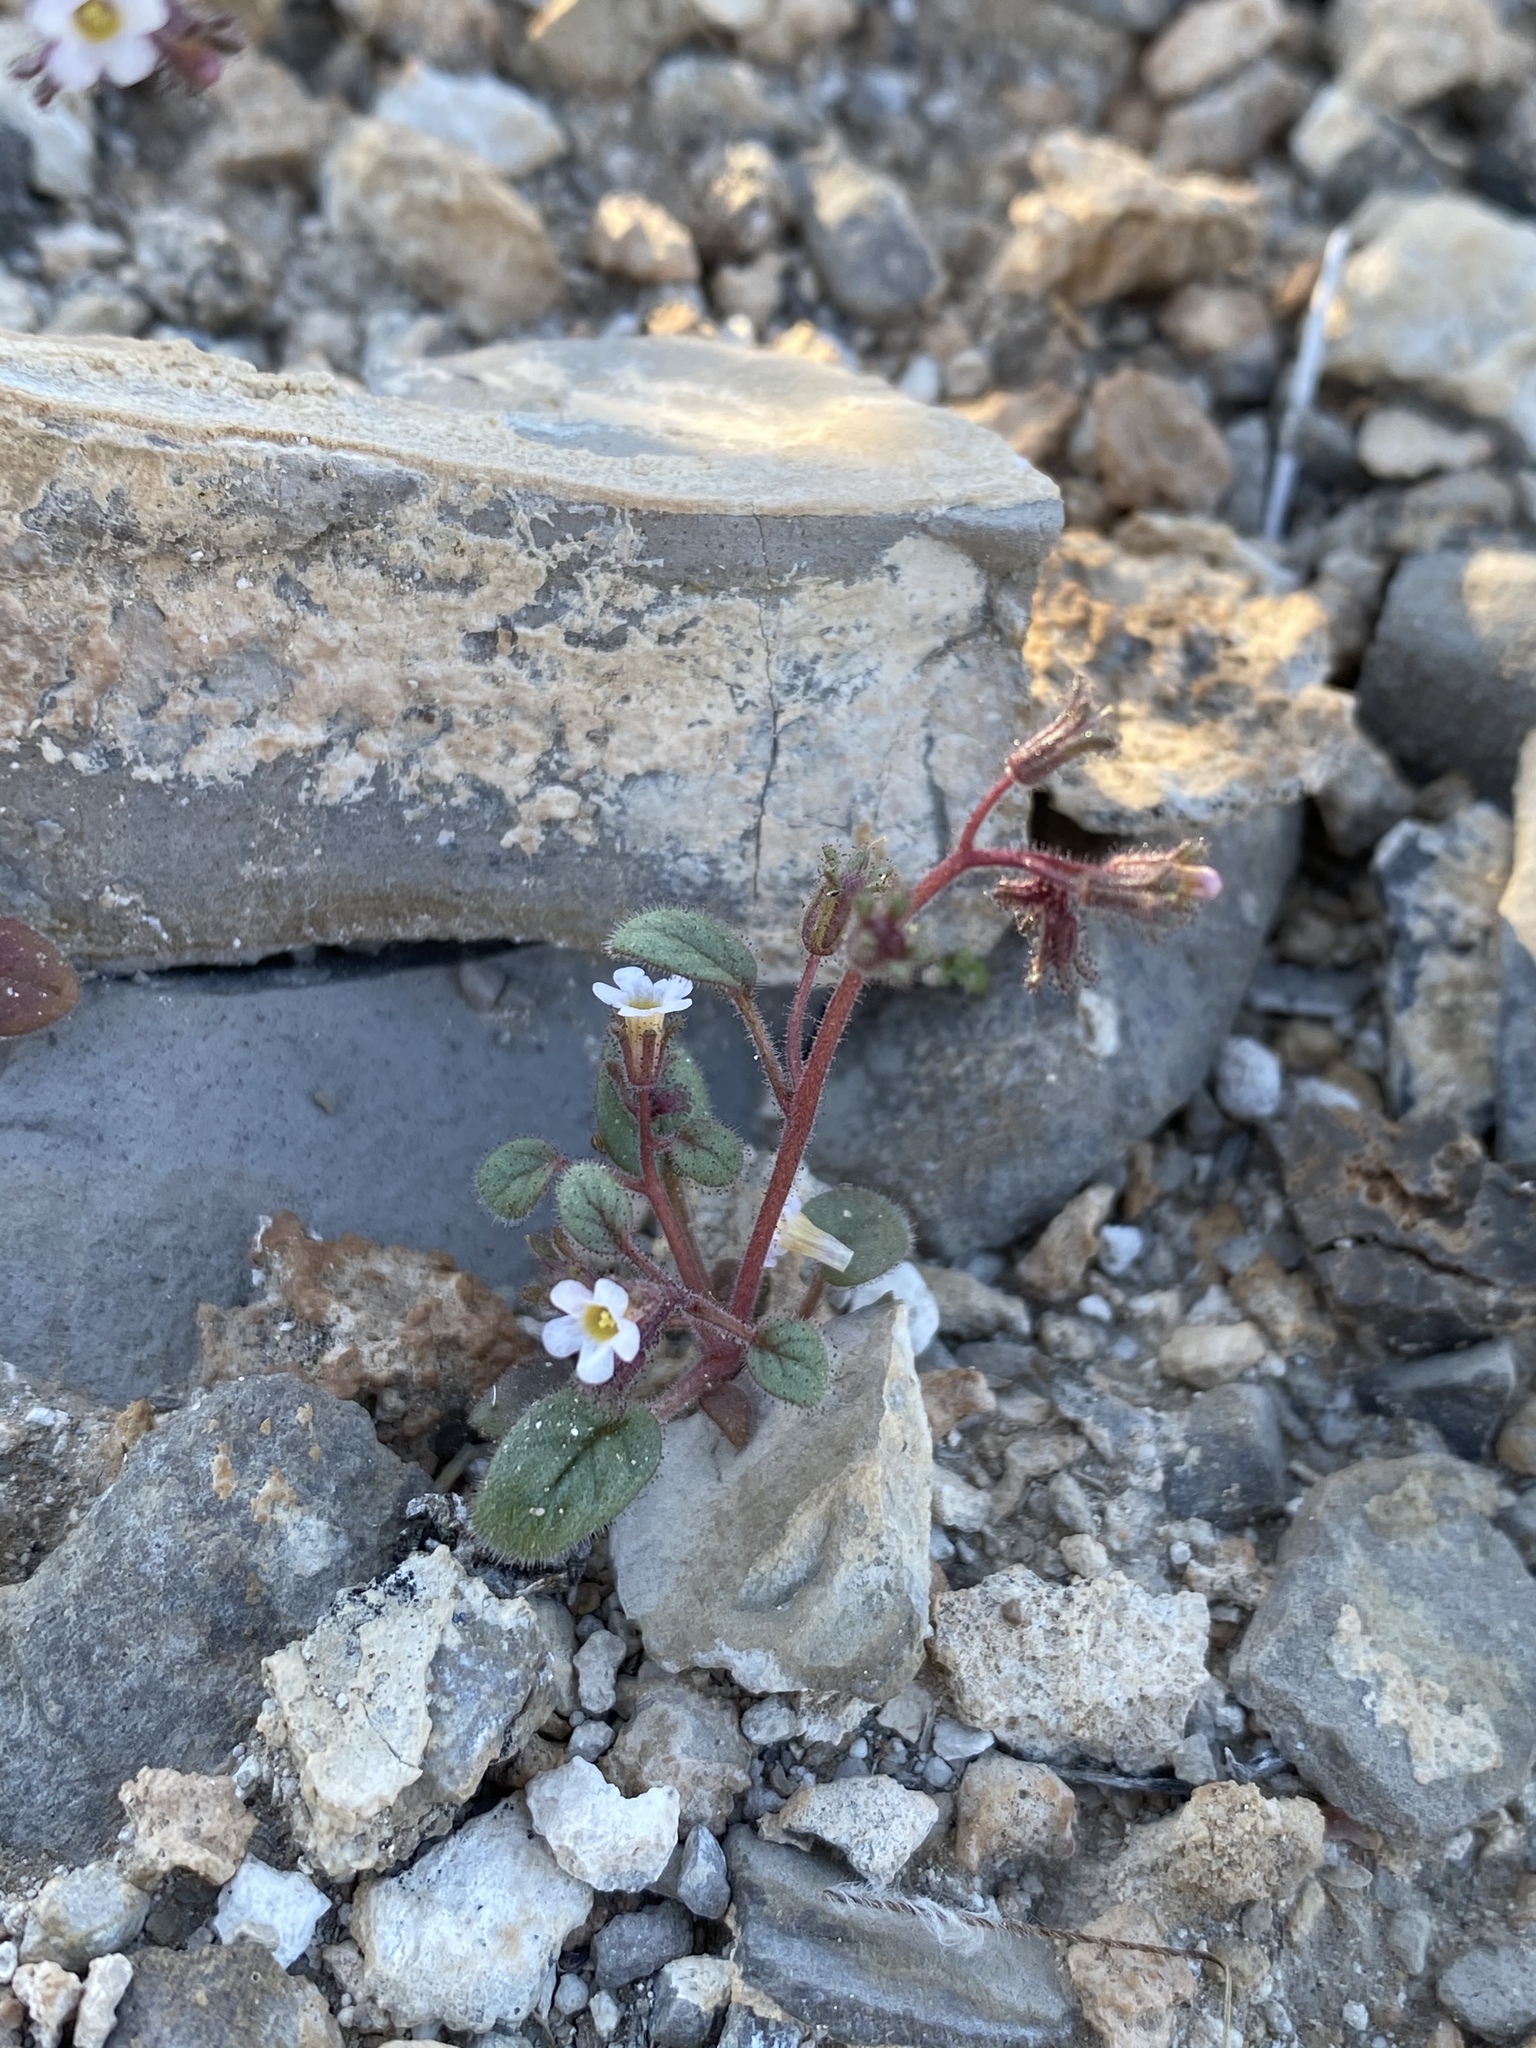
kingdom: Plantae
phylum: Tracheophyta
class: Magnoliopsida
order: Boraginales
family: Hydrophyllaceae
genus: Phacelia
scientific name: Phacelia barnebyana
